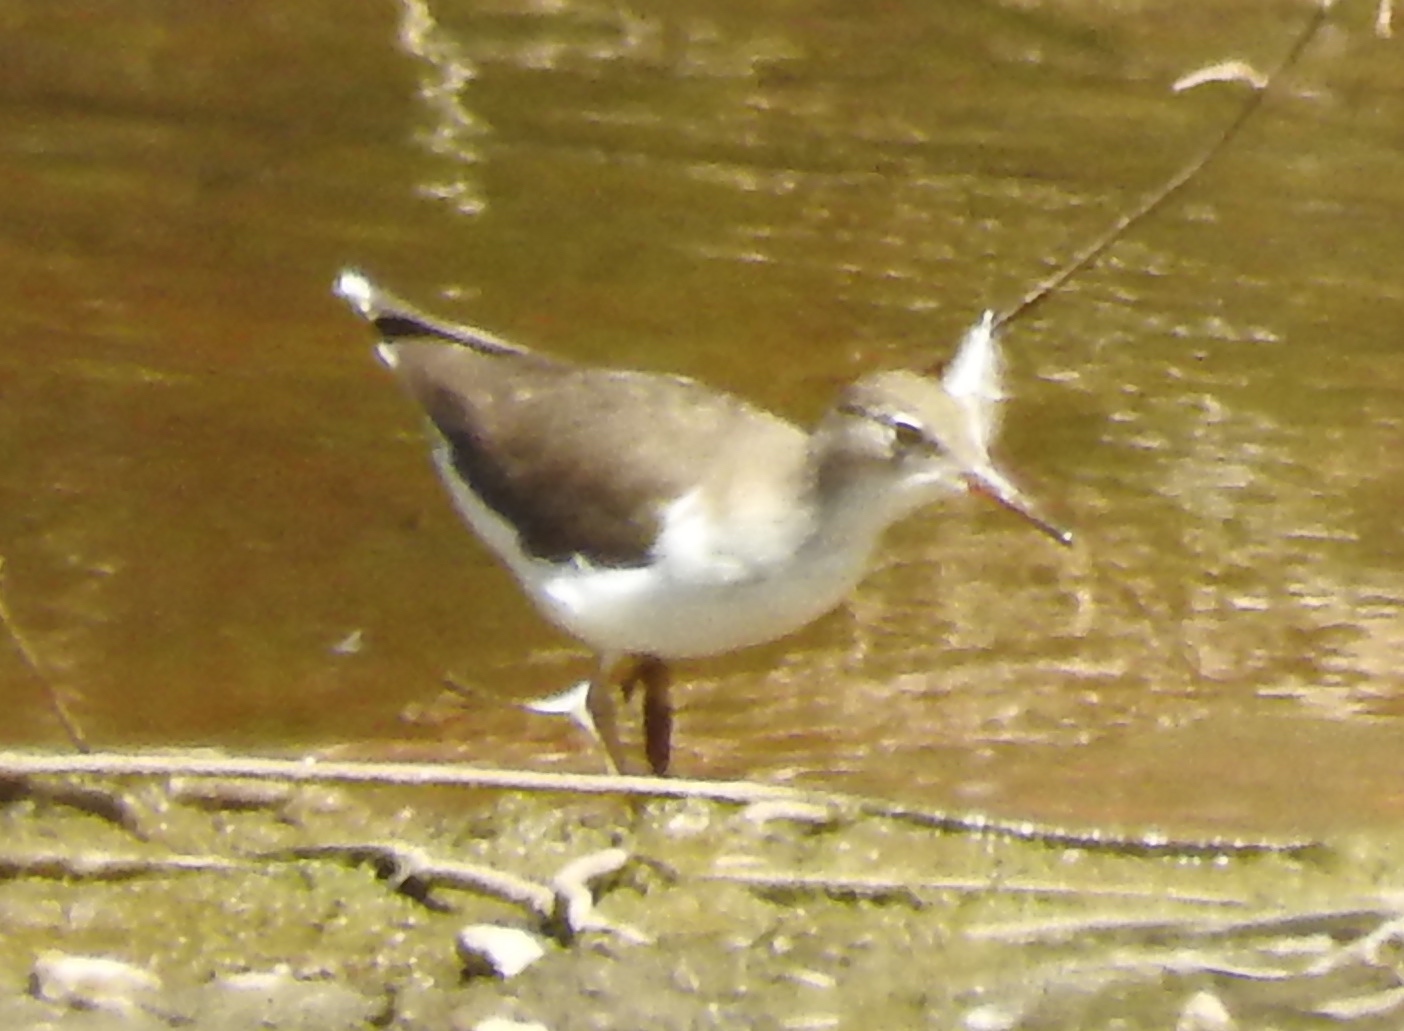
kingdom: Animalia
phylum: Chordata
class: Aves
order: Charadriiformes
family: Scolopacidae
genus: Actitis
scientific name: Actitis macularius
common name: Spotted sandpiper
